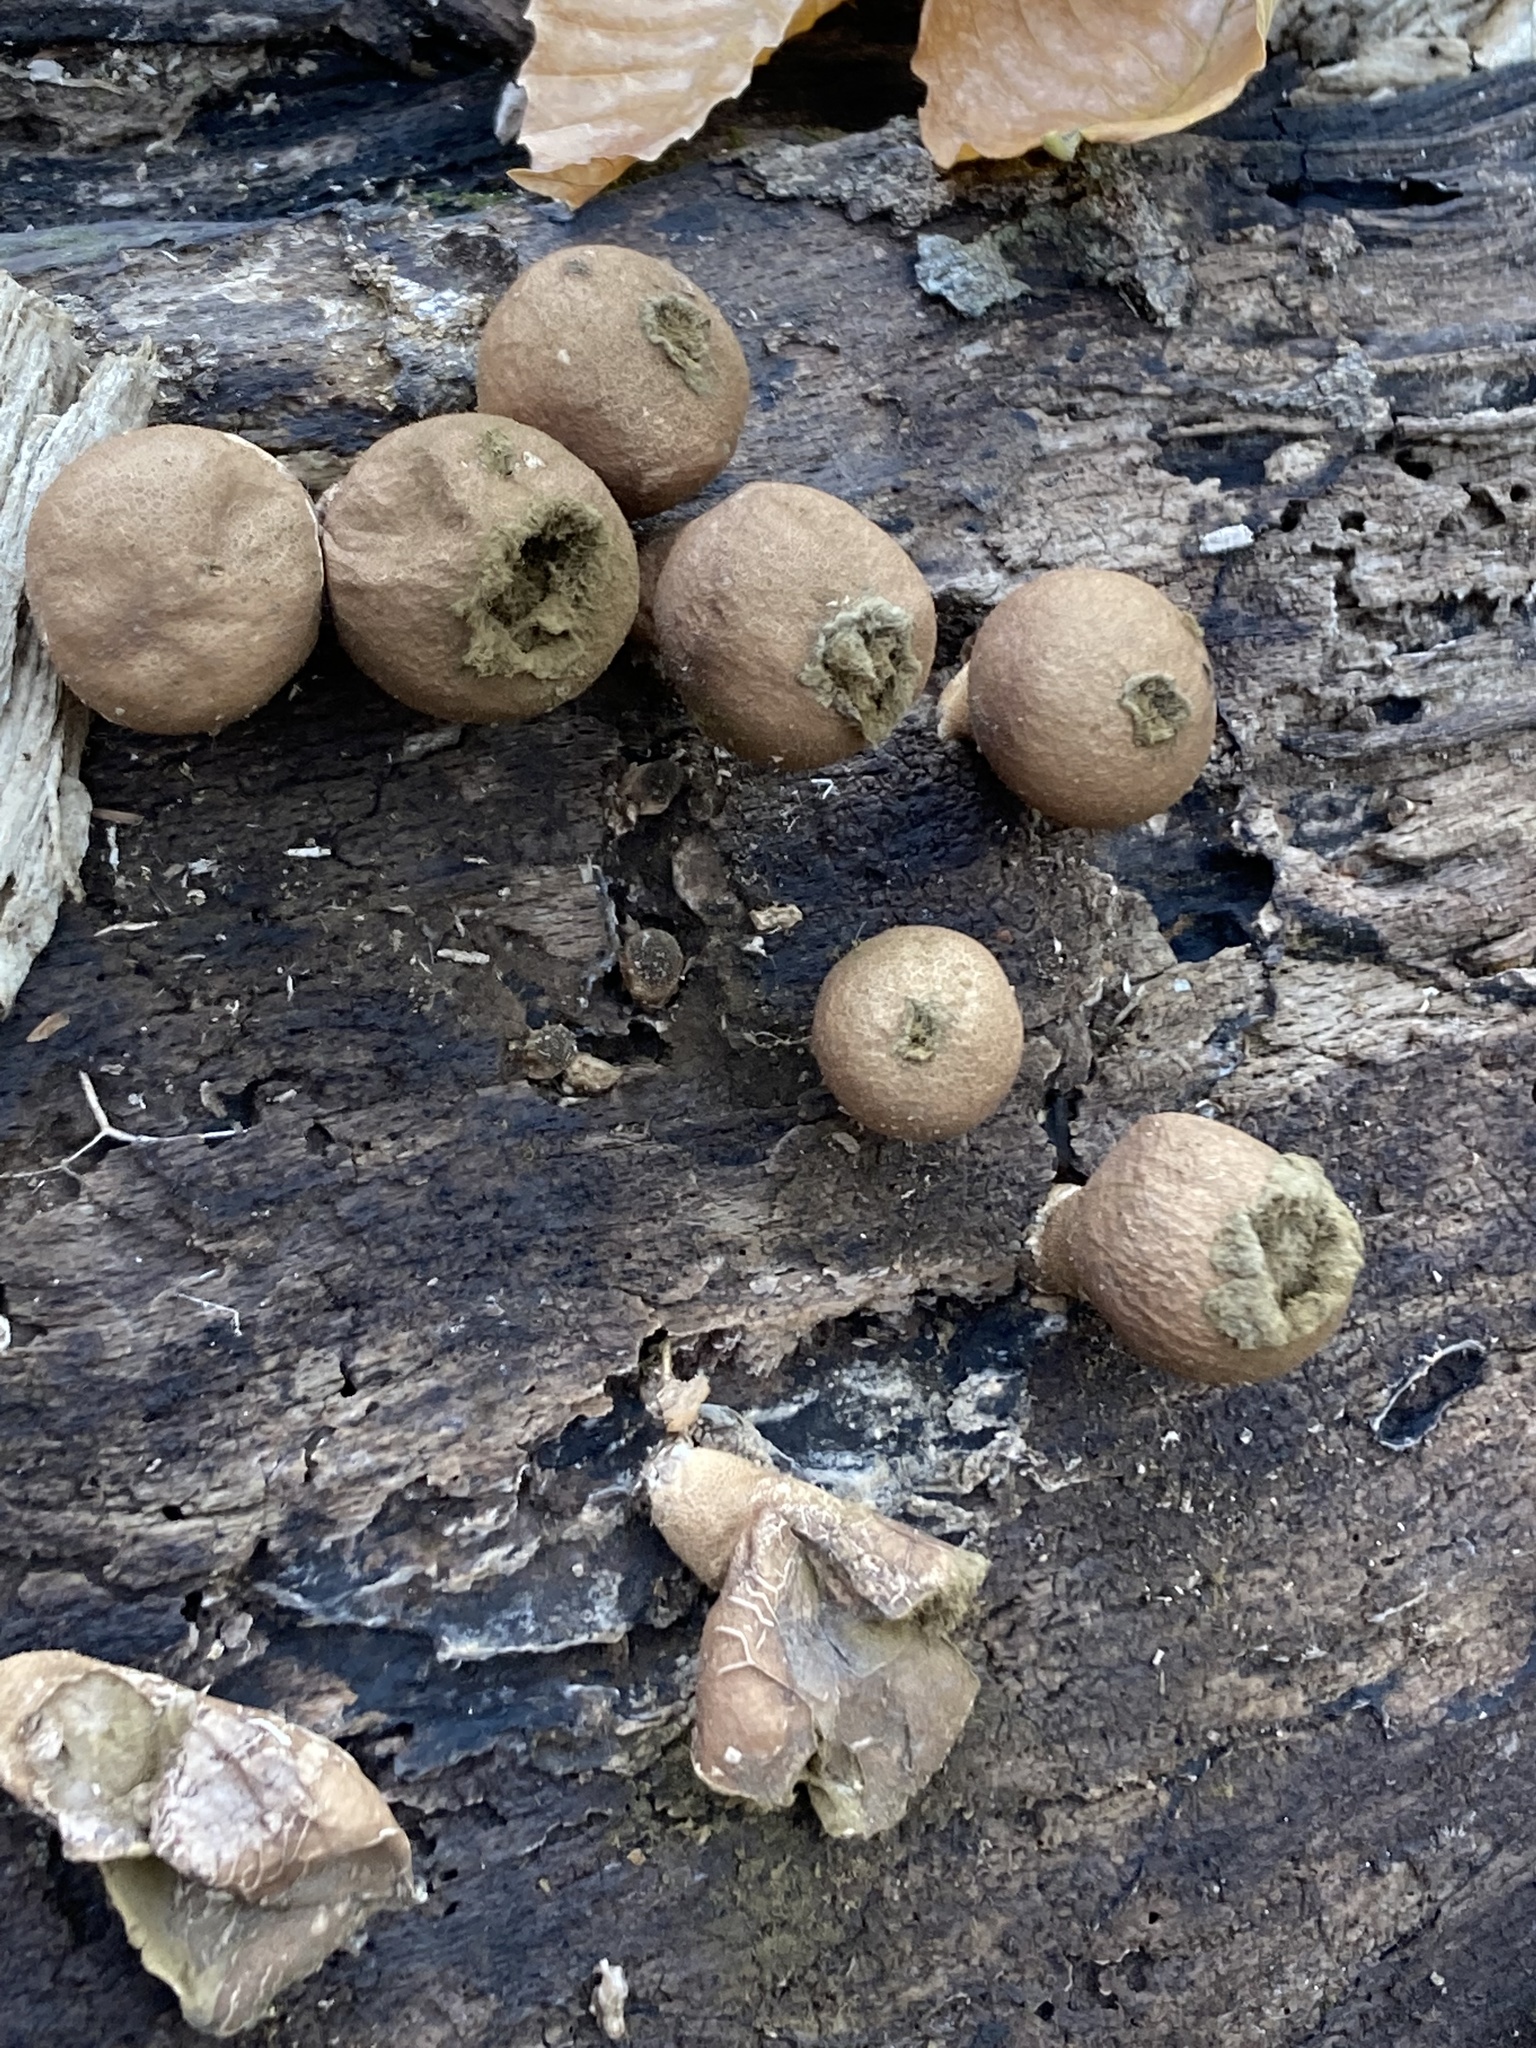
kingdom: Fungi
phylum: Basidiomycota
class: Agaricomycetes
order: Agaricales
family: Lycoperdaceae
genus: Apioperdon
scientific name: Apioperdon pyriforme
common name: Pear-shaped puffball
